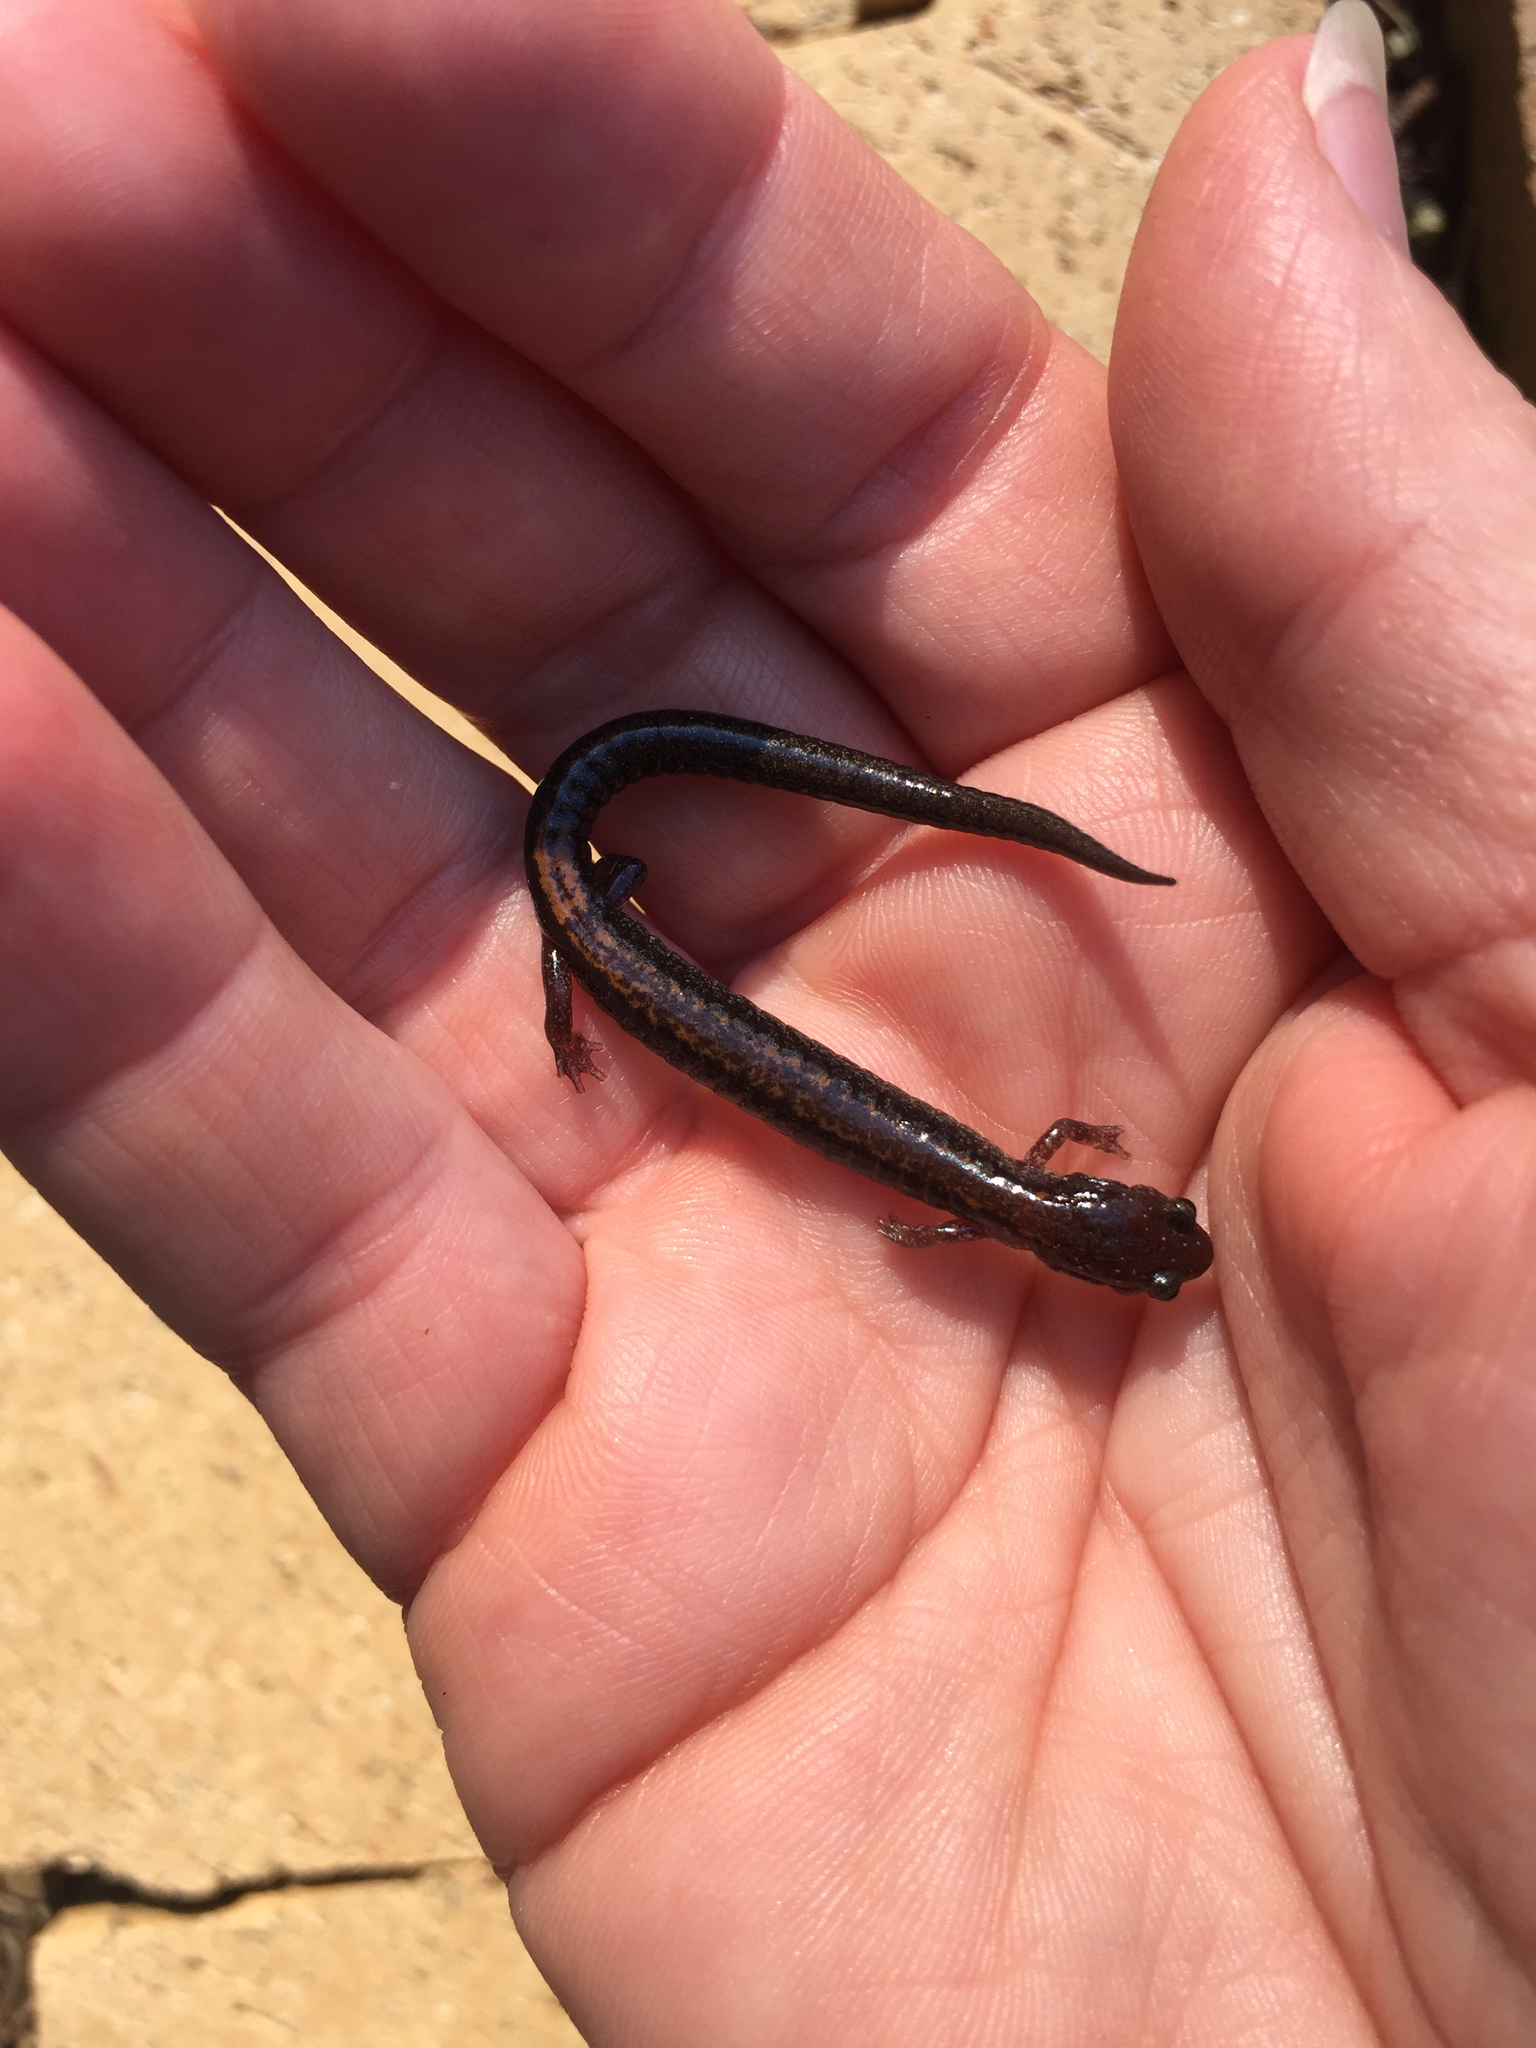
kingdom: Animalia
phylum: Chordata
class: Amphibia
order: Caudata
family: Plethodontidae
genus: Plethodon
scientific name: Plethodon cinereus
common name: Redback salamander
